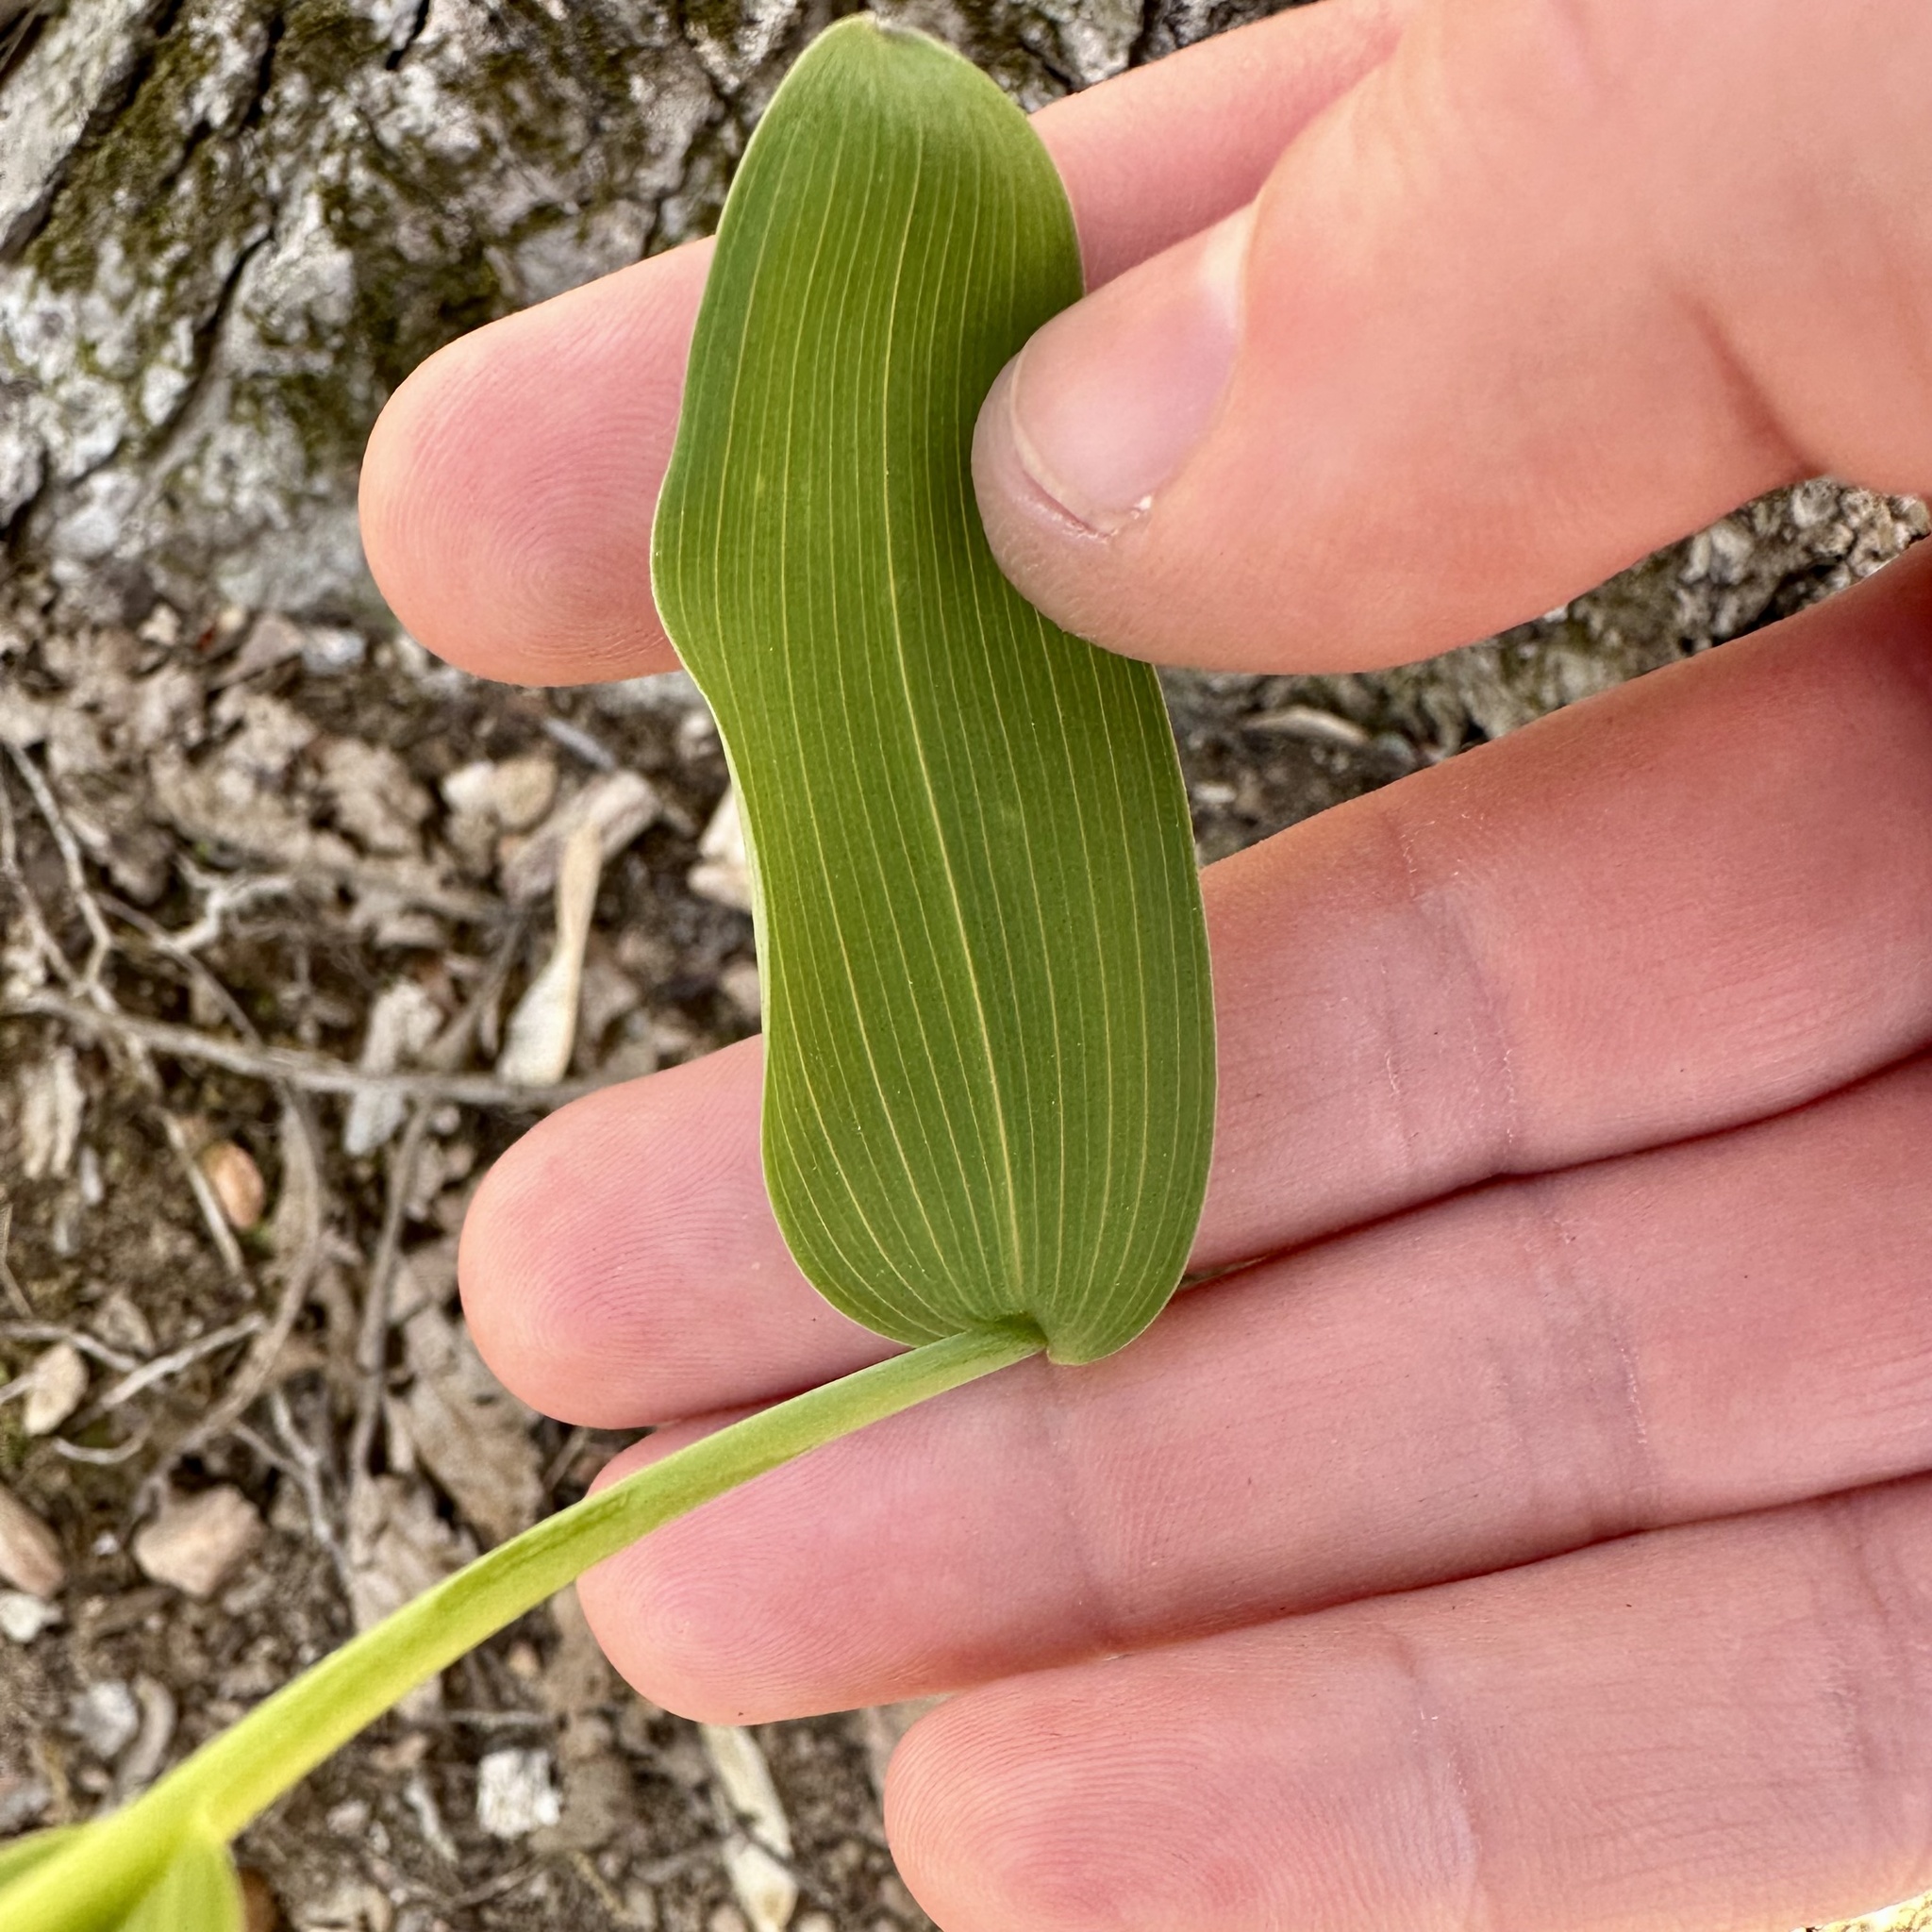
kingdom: Plantae
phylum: Tracheophyta
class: Liliopsida
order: Asparagales
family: Asparagaceae
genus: Polygonatum
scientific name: Polygonatum biflorum
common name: American solomon's-seal
